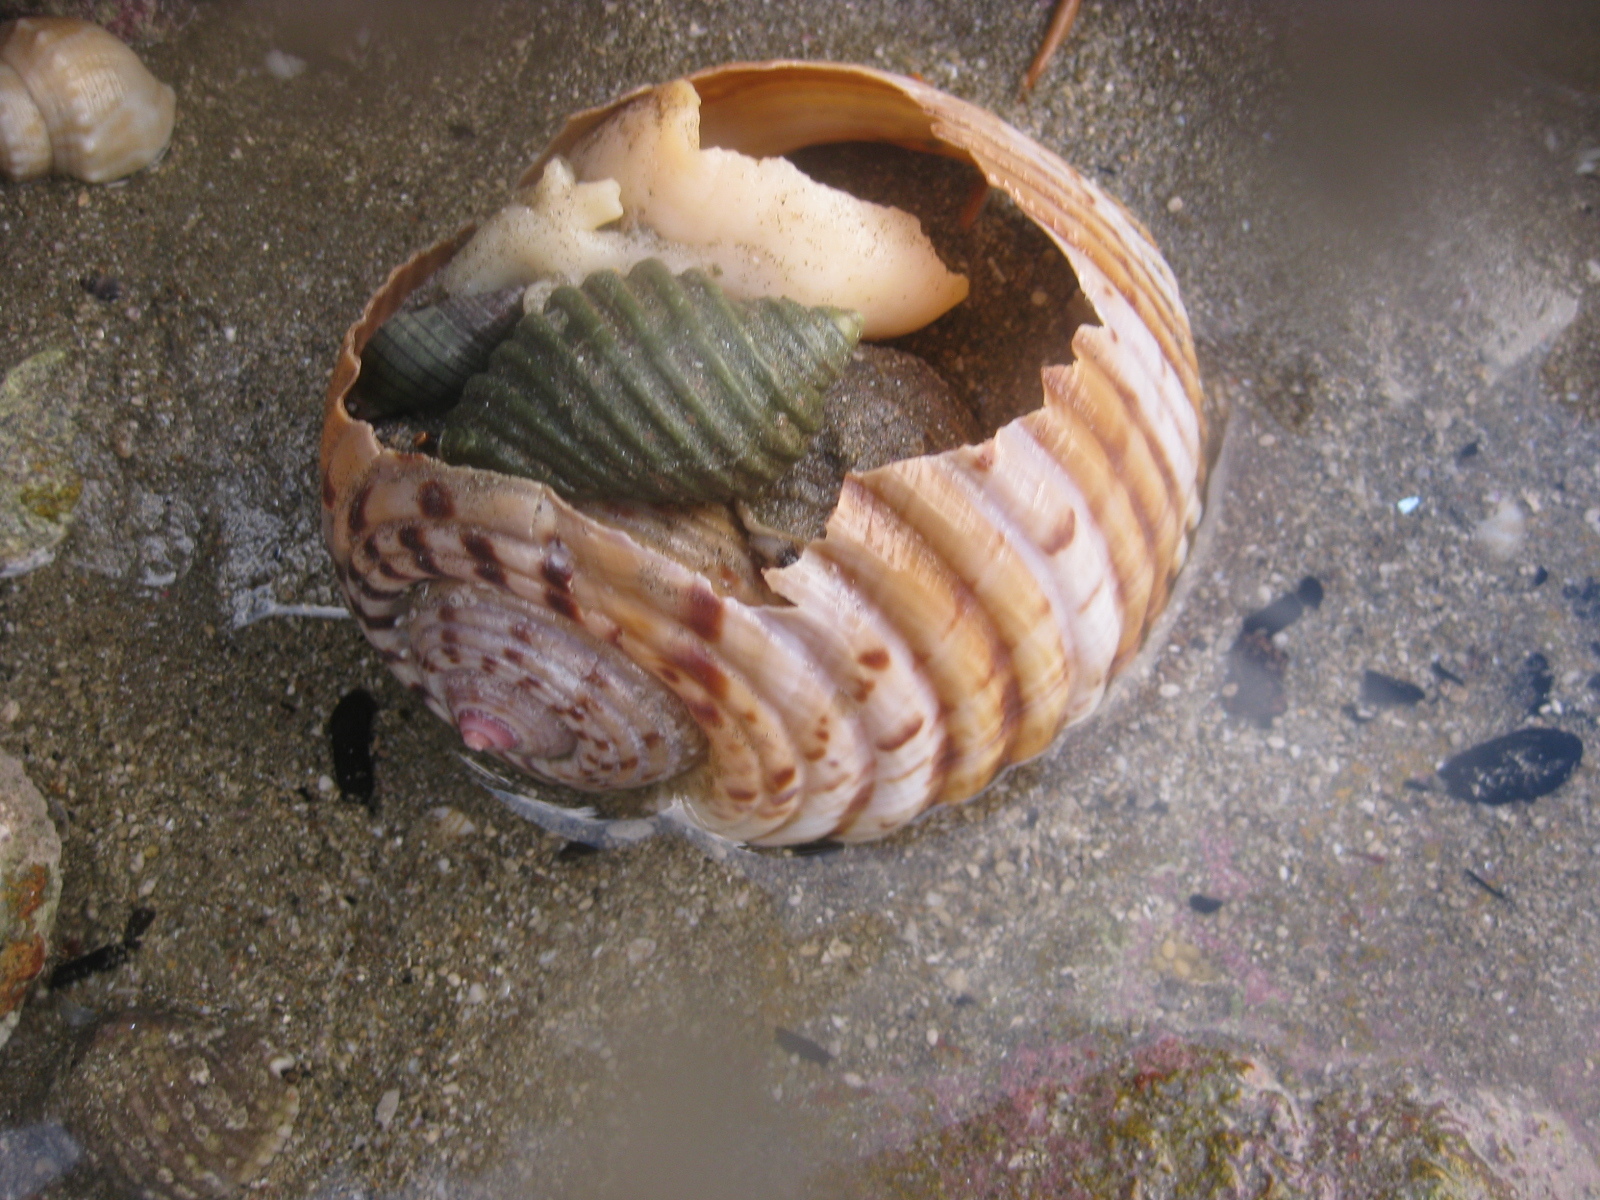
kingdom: Animalia
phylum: Mollusca
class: Gastropoda
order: Neogastropoda
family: Muricidae
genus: Dicathais
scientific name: Dicathais orbita
